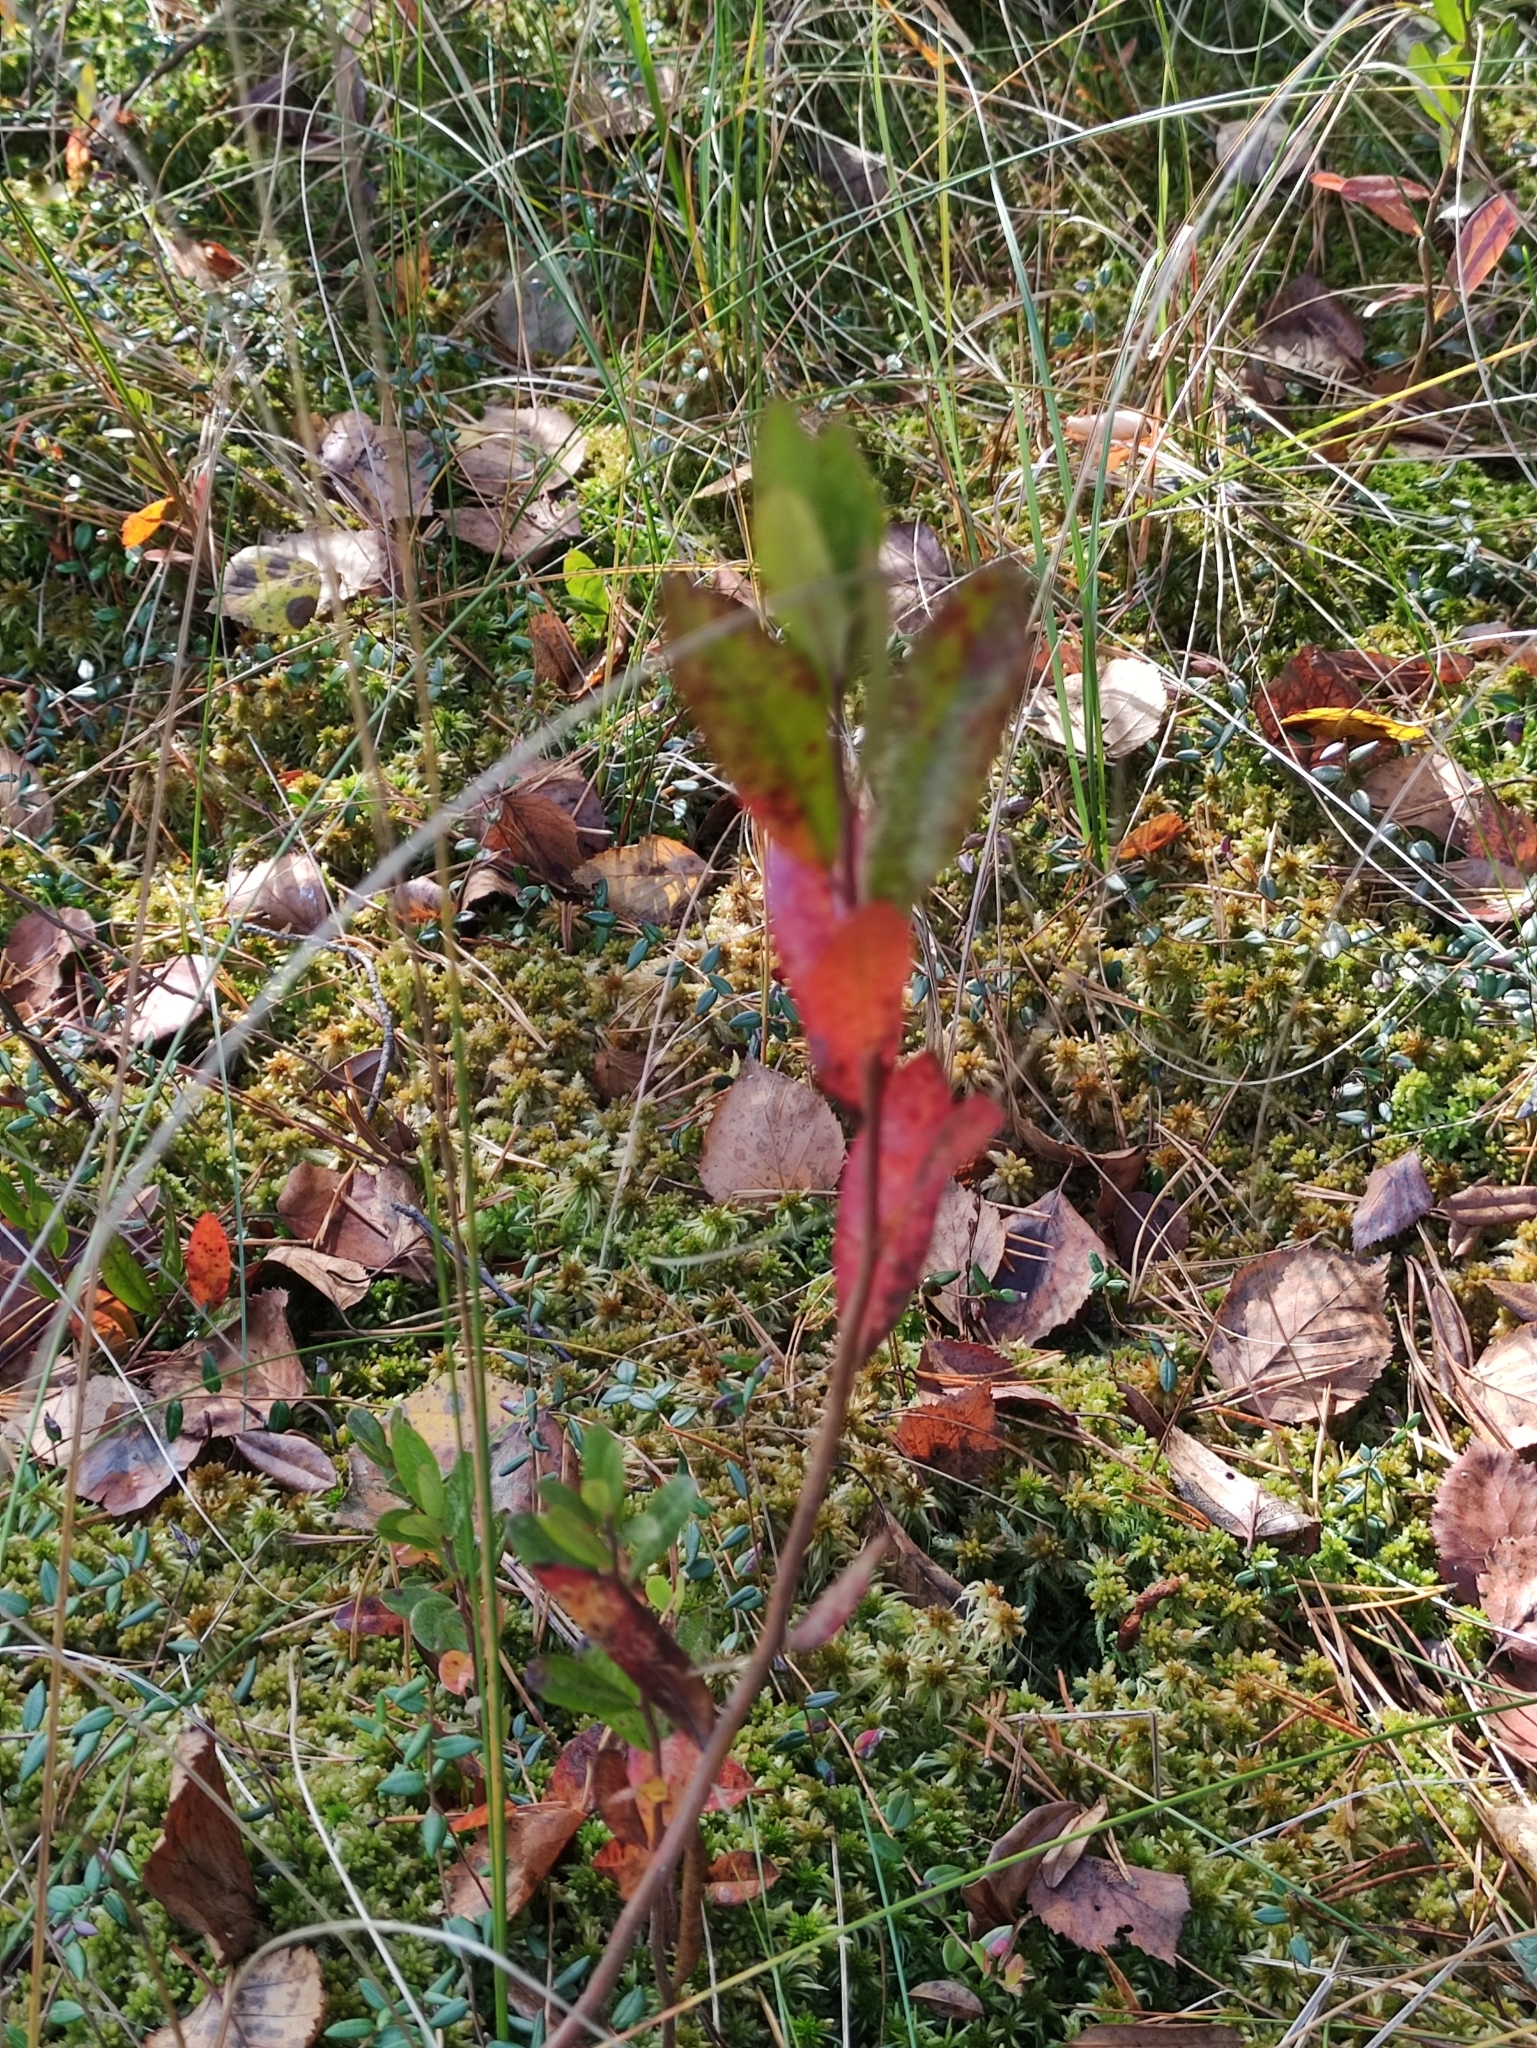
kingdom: Plantae
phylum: Tracheophyta
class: Magnoliopsida
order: Ericales
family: Ericaceae
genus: Chamaedaphne
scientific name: Chamaedaphne calyculata
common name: Leatherleaf
